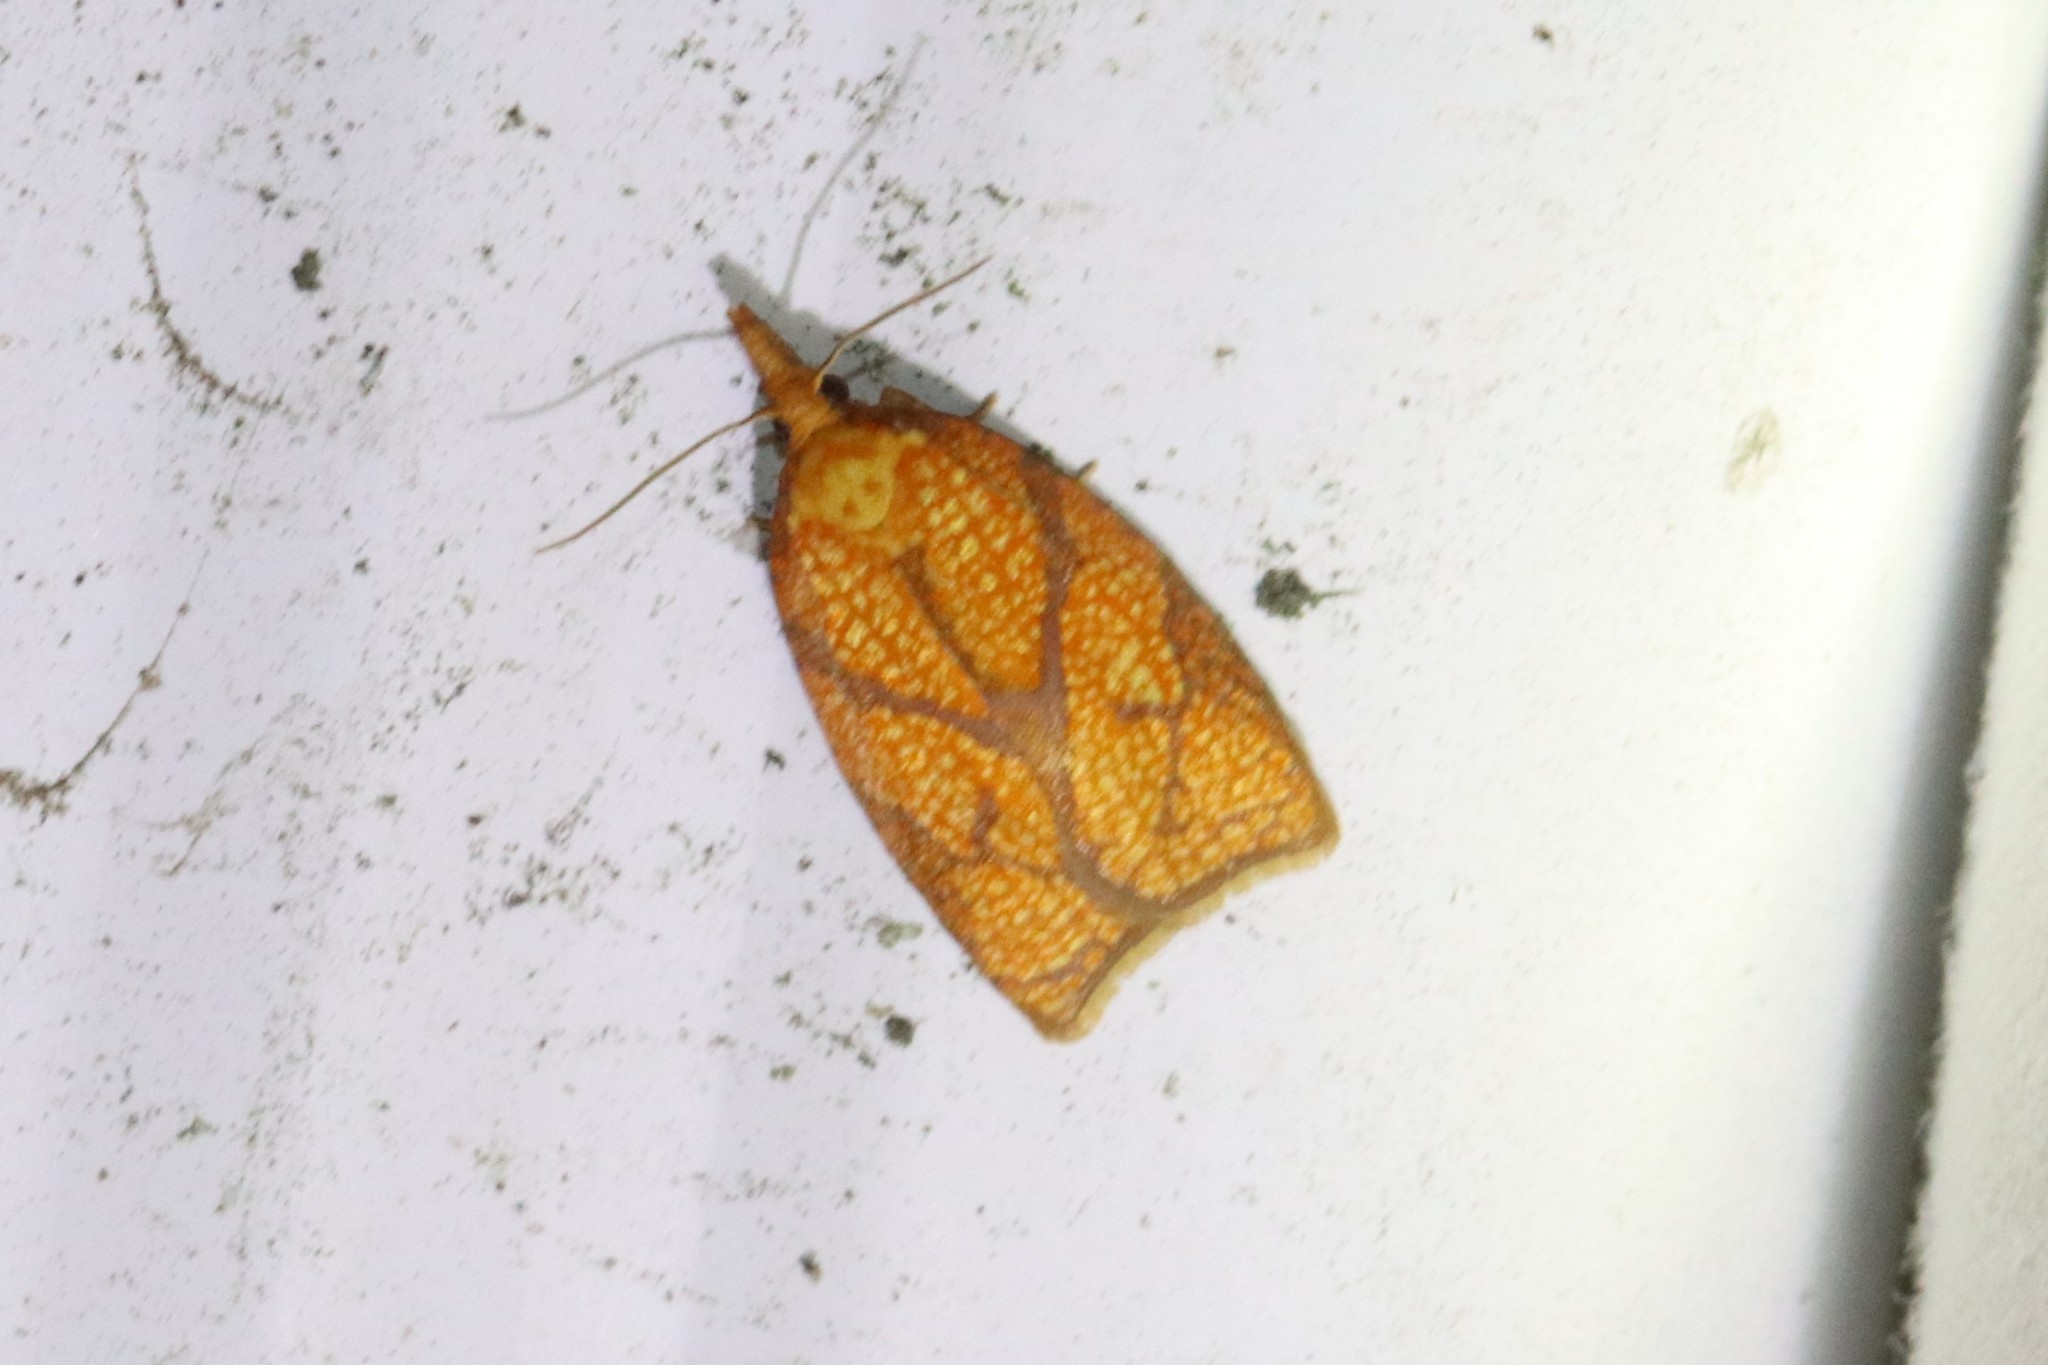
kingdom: Animalia
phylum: Arthropoda
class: Insecta
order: Lepidoptera
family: Tortricidae
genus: Cenopis
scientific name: Cenopis reticulatana
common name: Reticulated fruitworm moth
